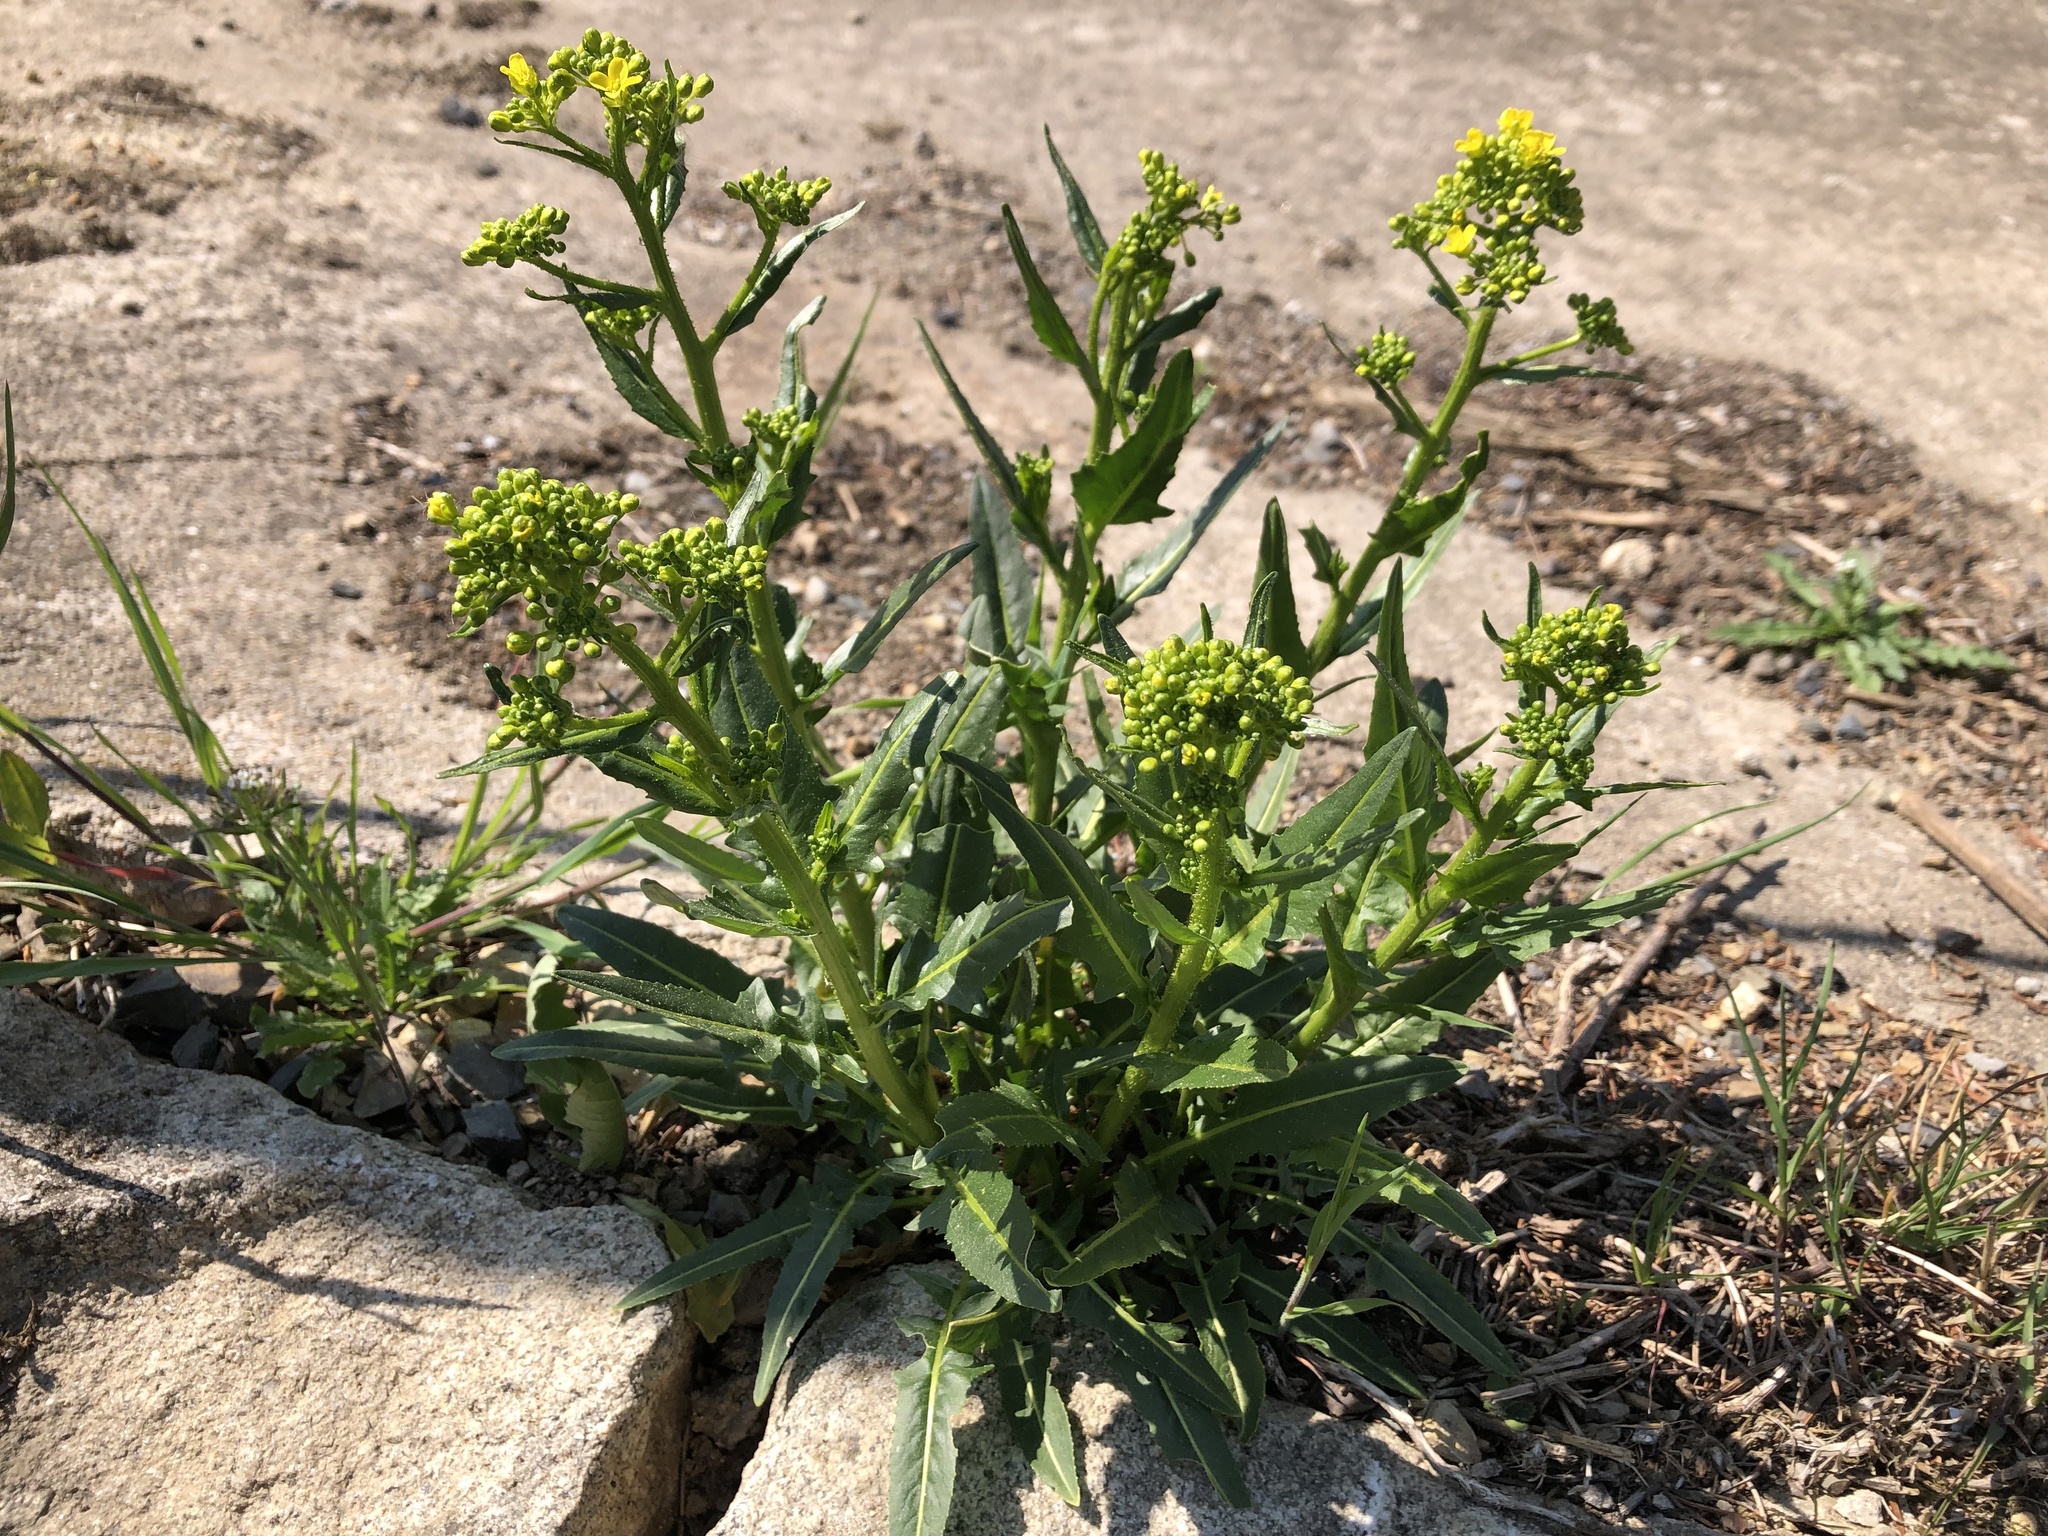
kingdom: Plantae
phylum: Tracheophyta
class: Magnoliopsida
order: Brassicales
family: Brassicaceae
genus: Bunias
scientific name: Bunias orientalis
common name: Warty-cabbage
